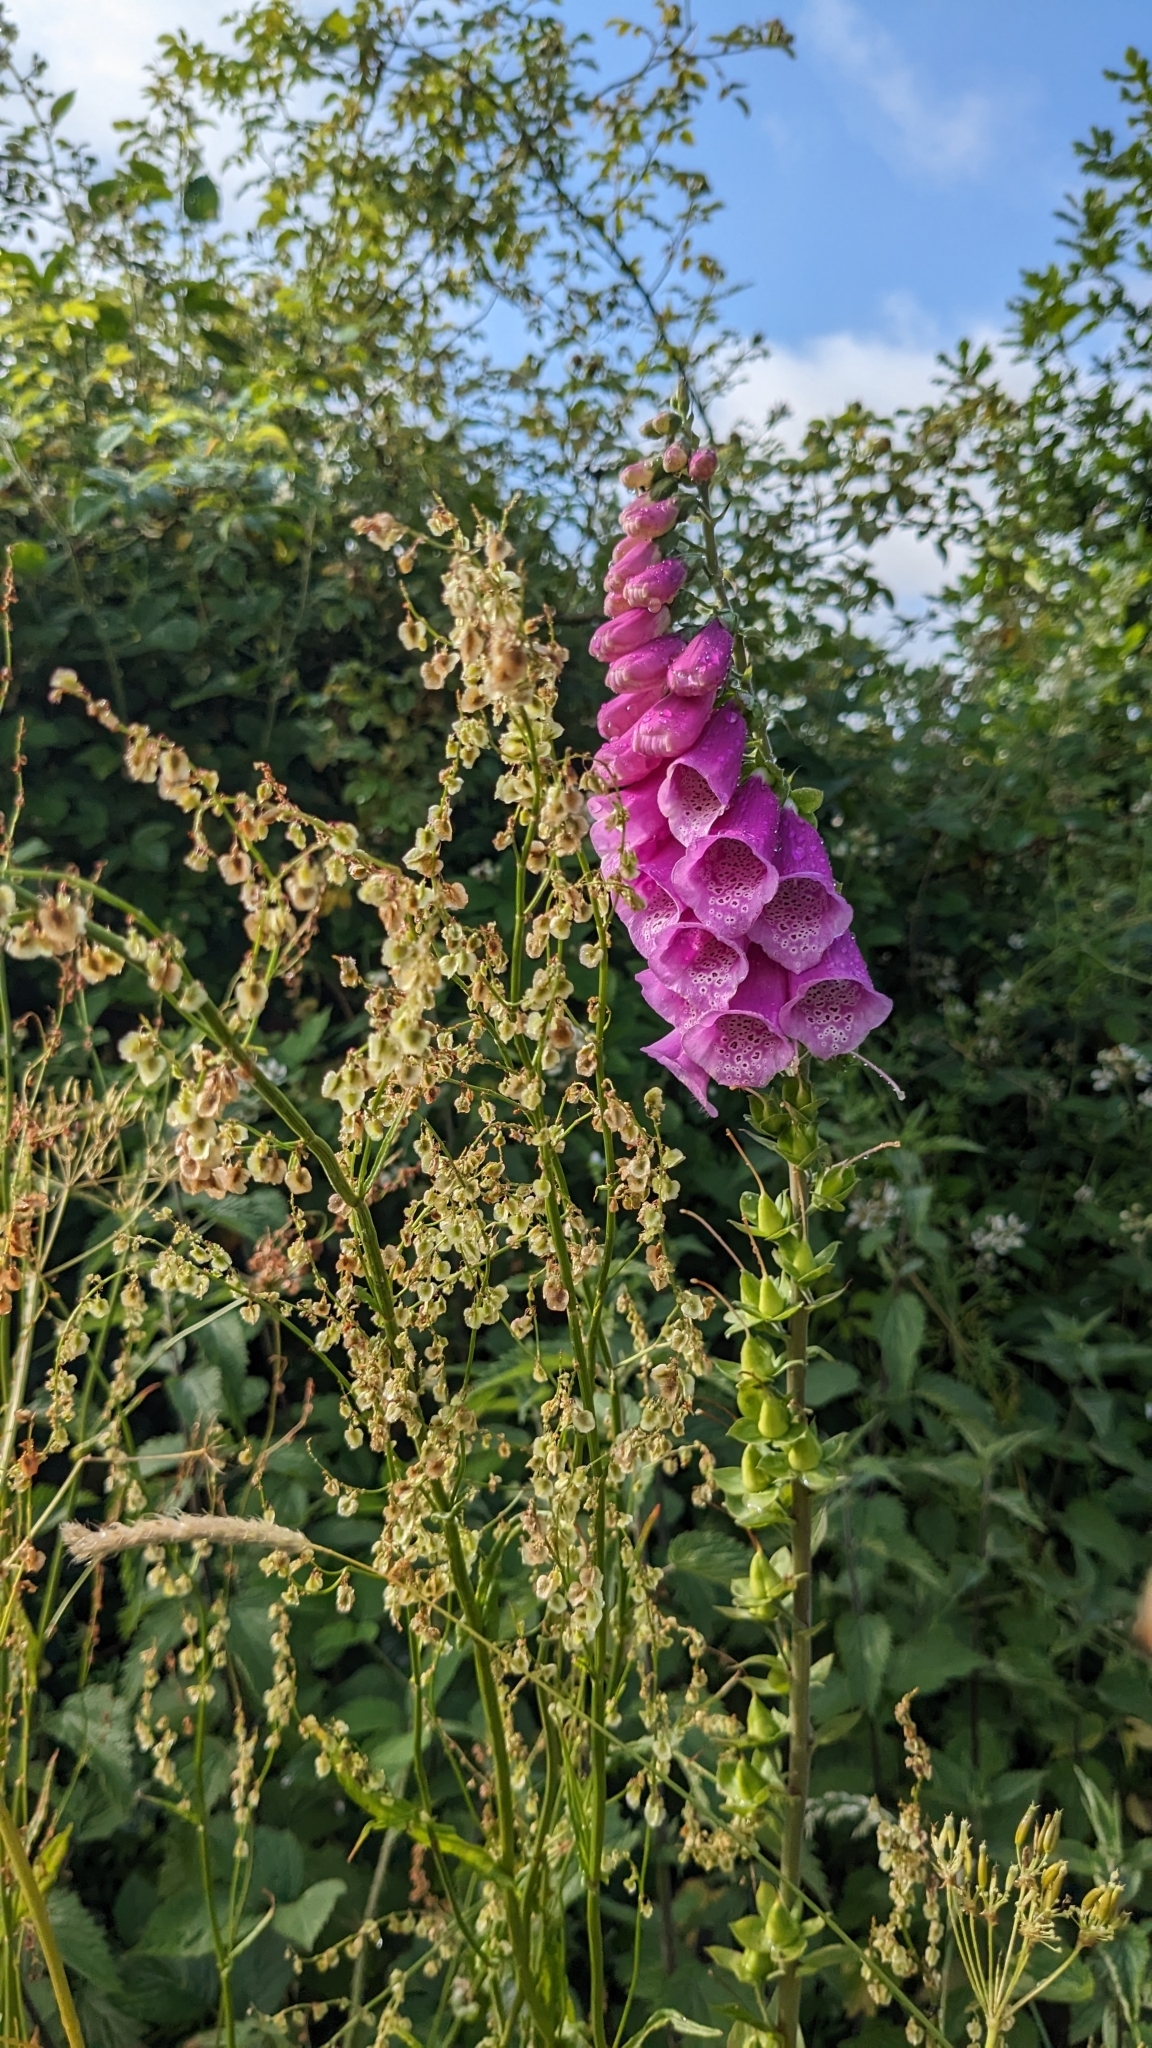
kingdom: Plantae
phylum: Tracheophyta
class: Magnoliopsida
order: Lamiales
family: Plantaginaceae
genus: Digitalis
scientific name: Digitalis purpurea
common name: Foxglove
